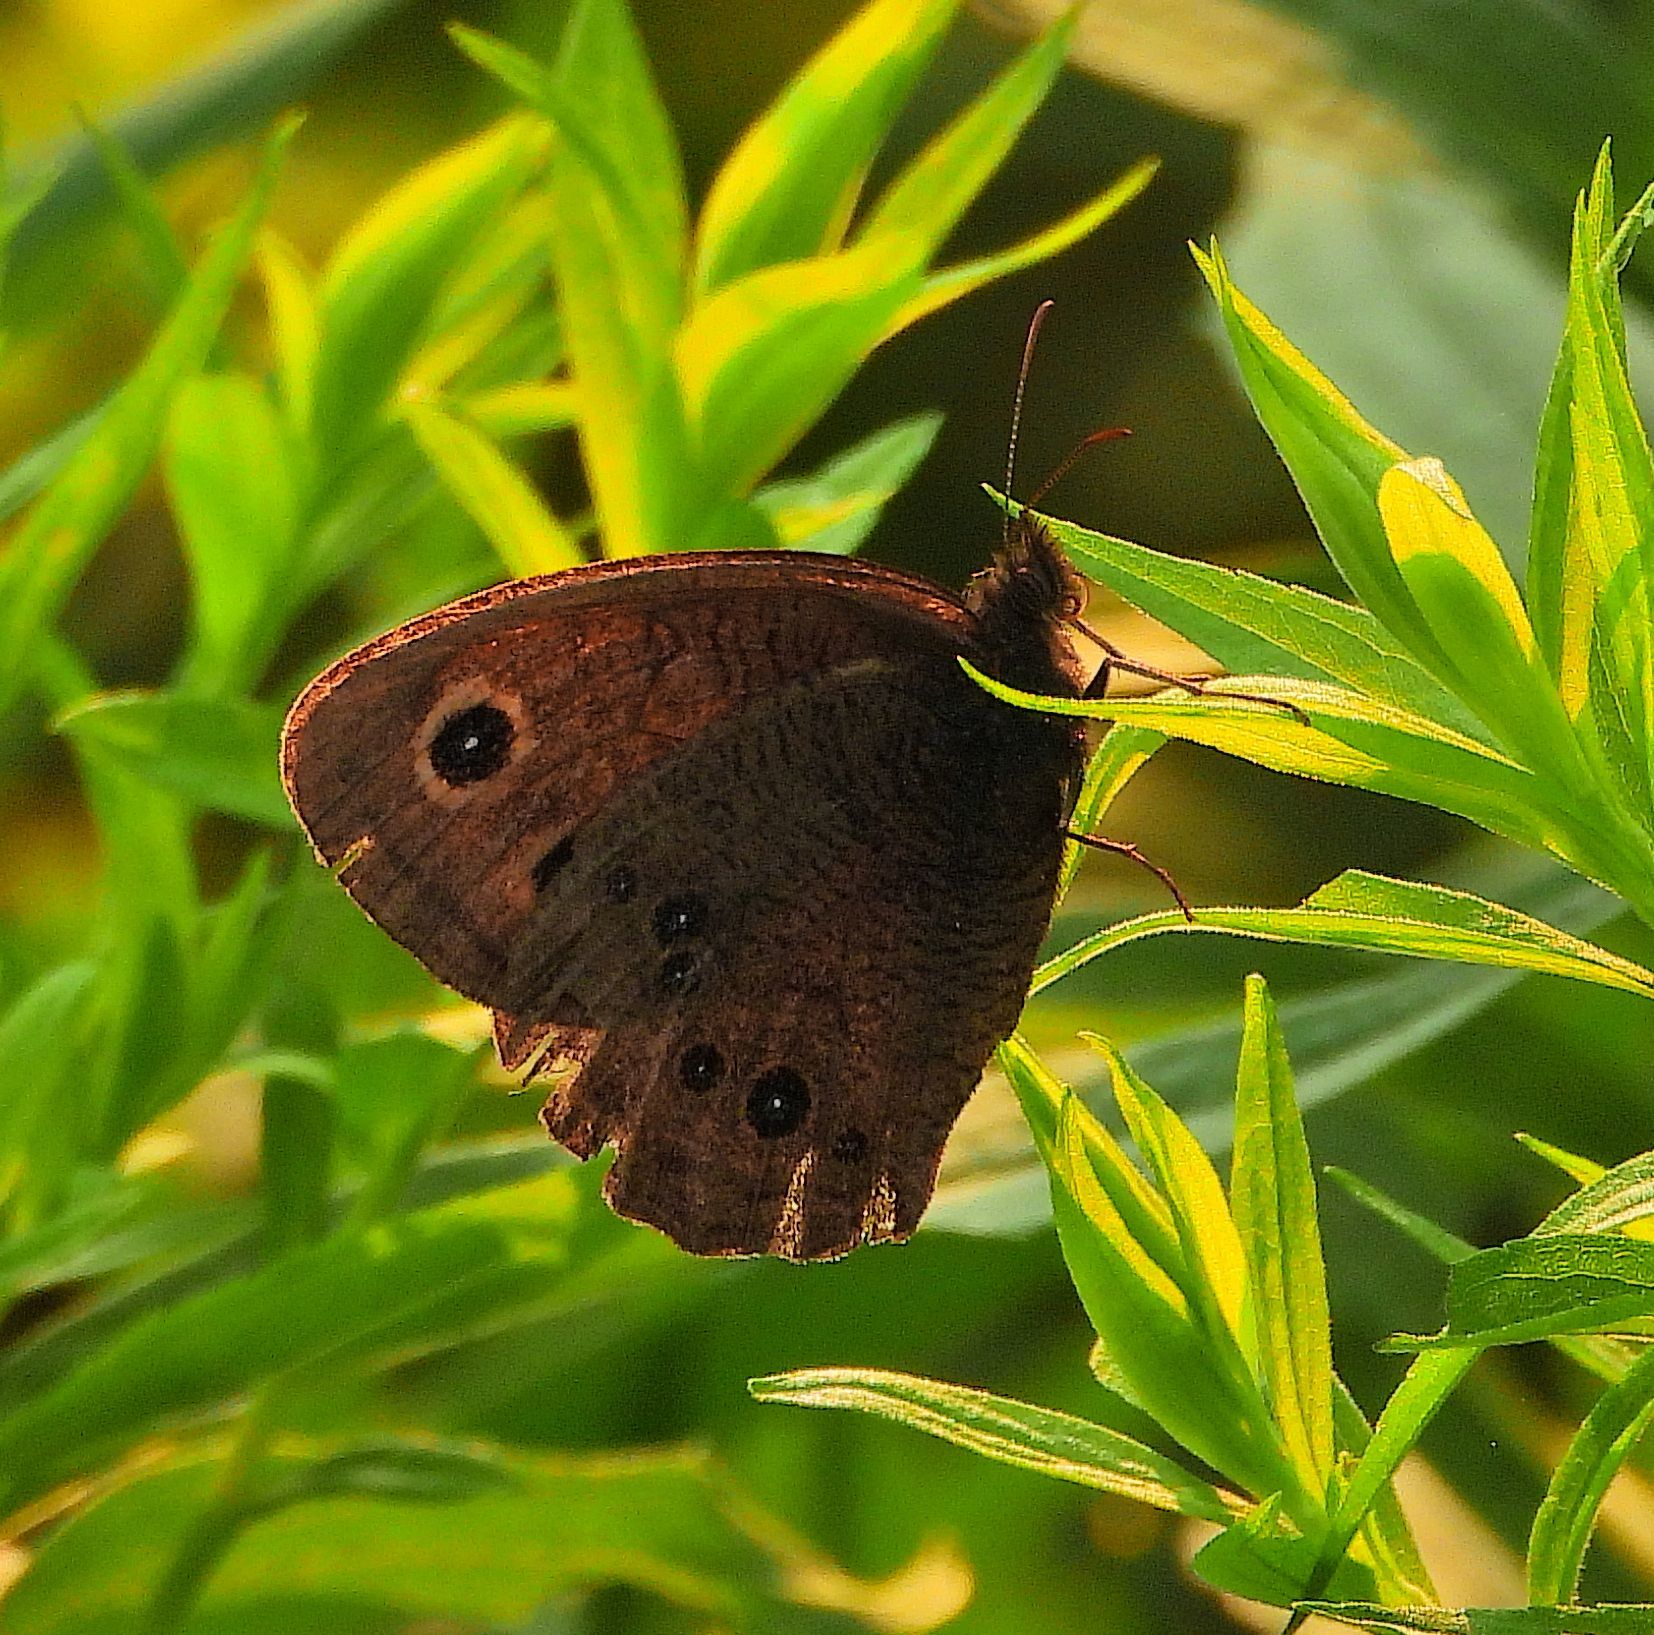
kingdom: Animalia
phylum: Arthropoda
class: Insecta
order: Lepidoptera
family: Nymphalidae
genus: Cercyonis
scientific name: Cercyonis pegala
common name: Common wood-nymph
